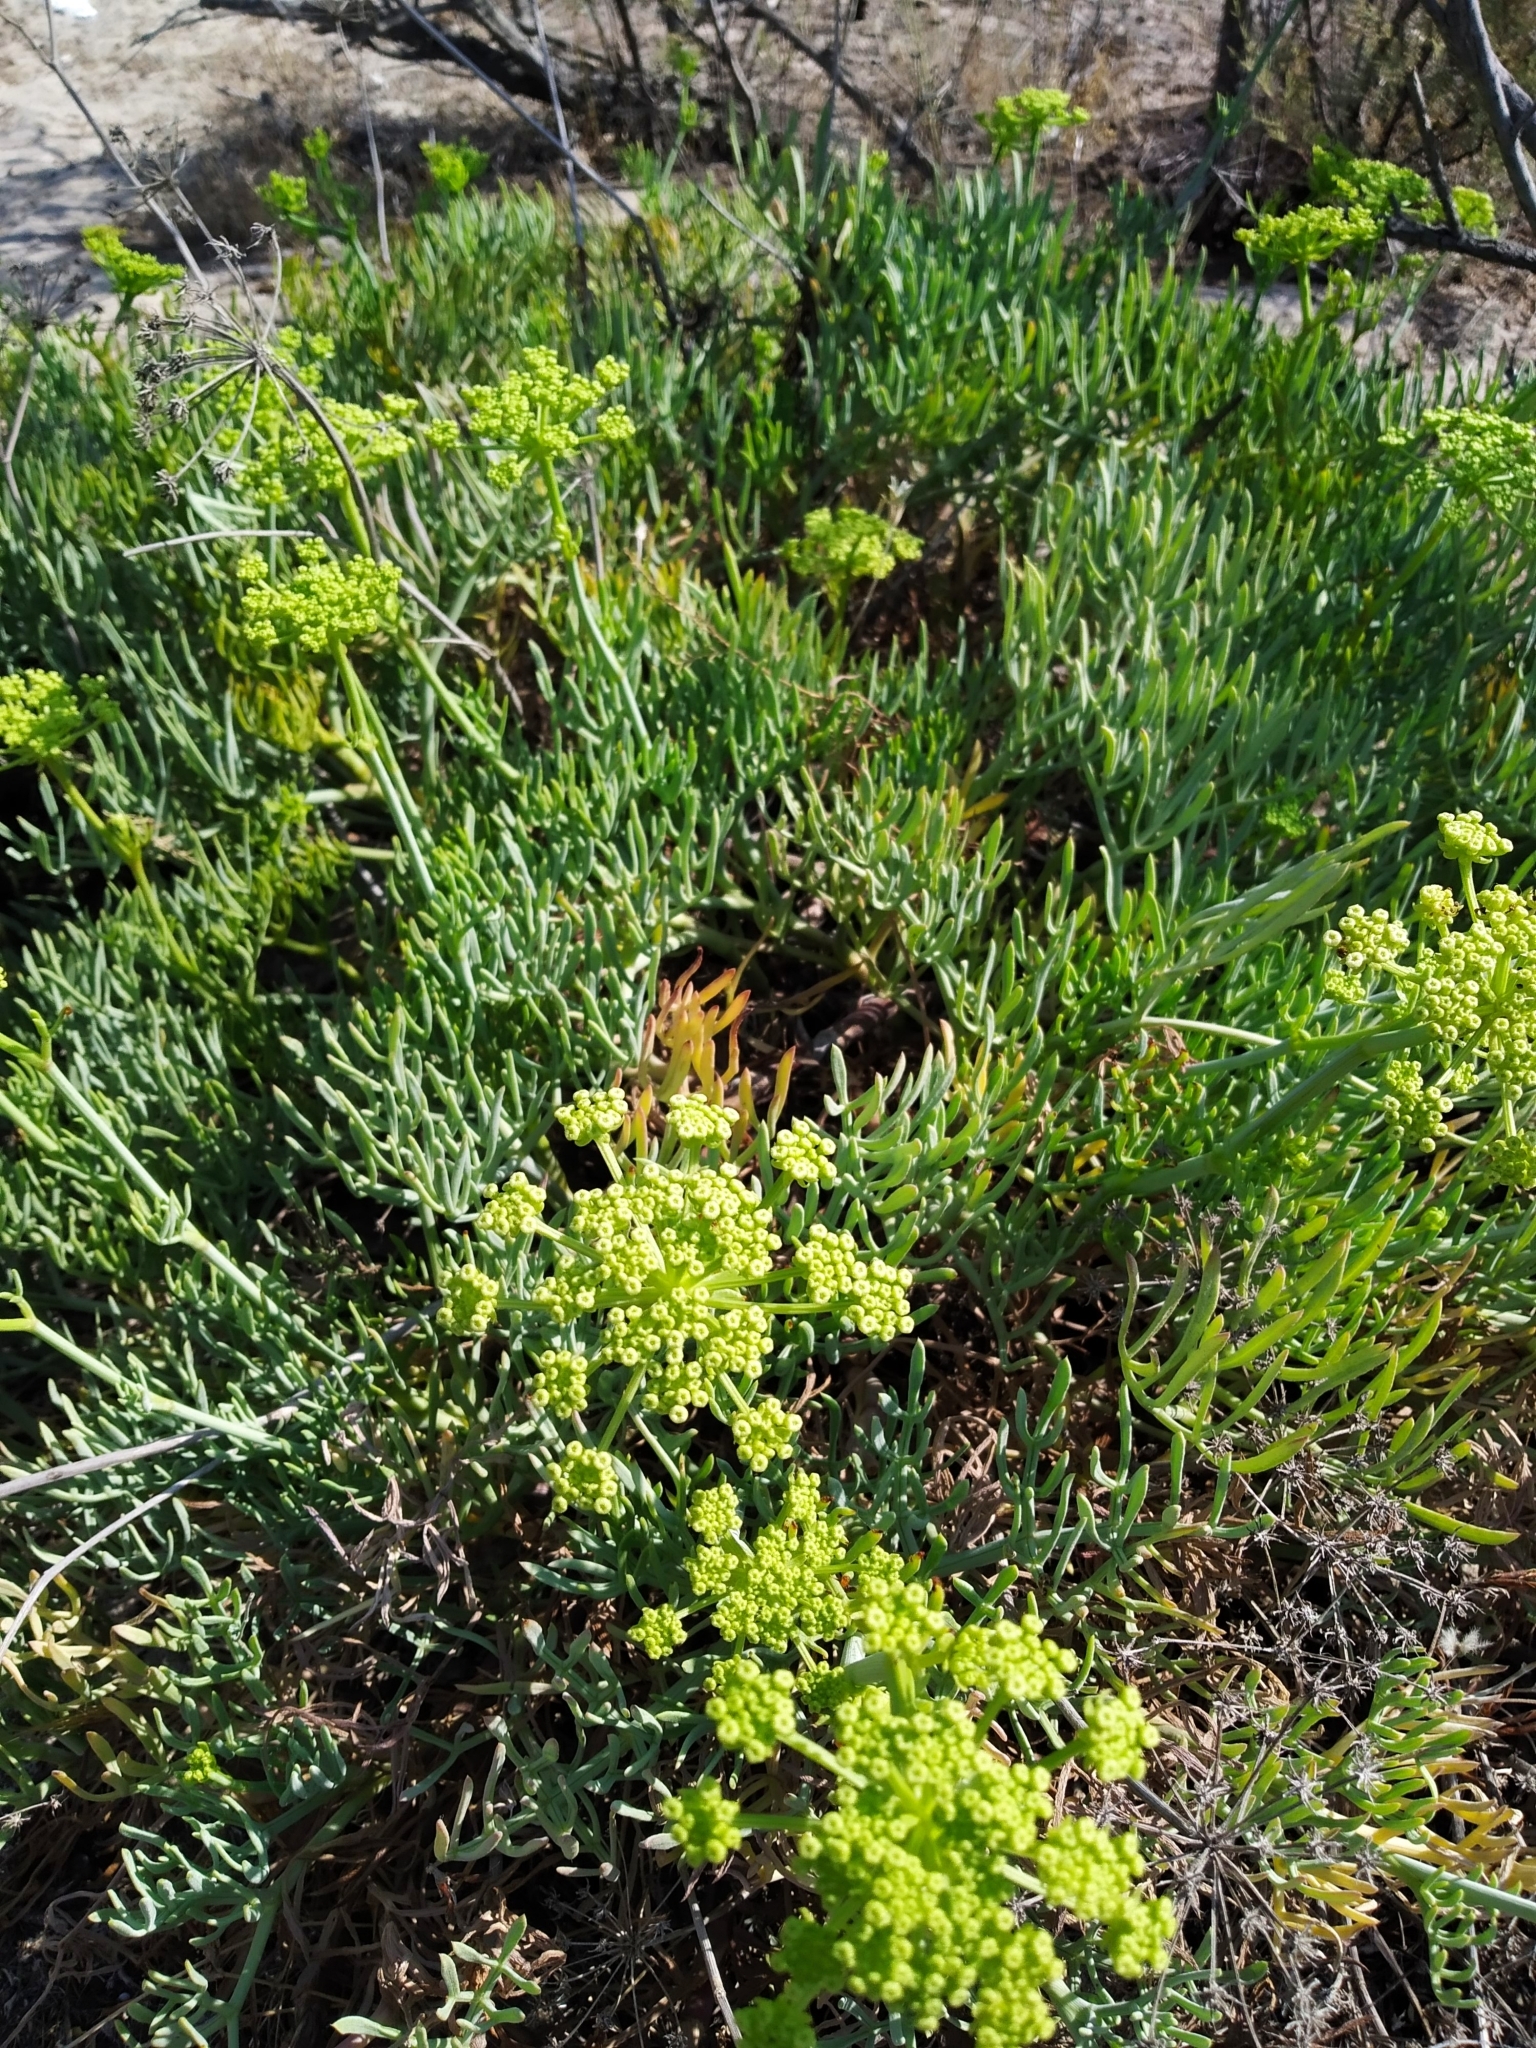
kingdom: Plantae
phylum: Tracheophyta
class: Magnoliopsida
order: Apiales
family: Apiaceae
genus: Crithmum
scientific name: Crithmum maritimum
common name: Rock samphire
